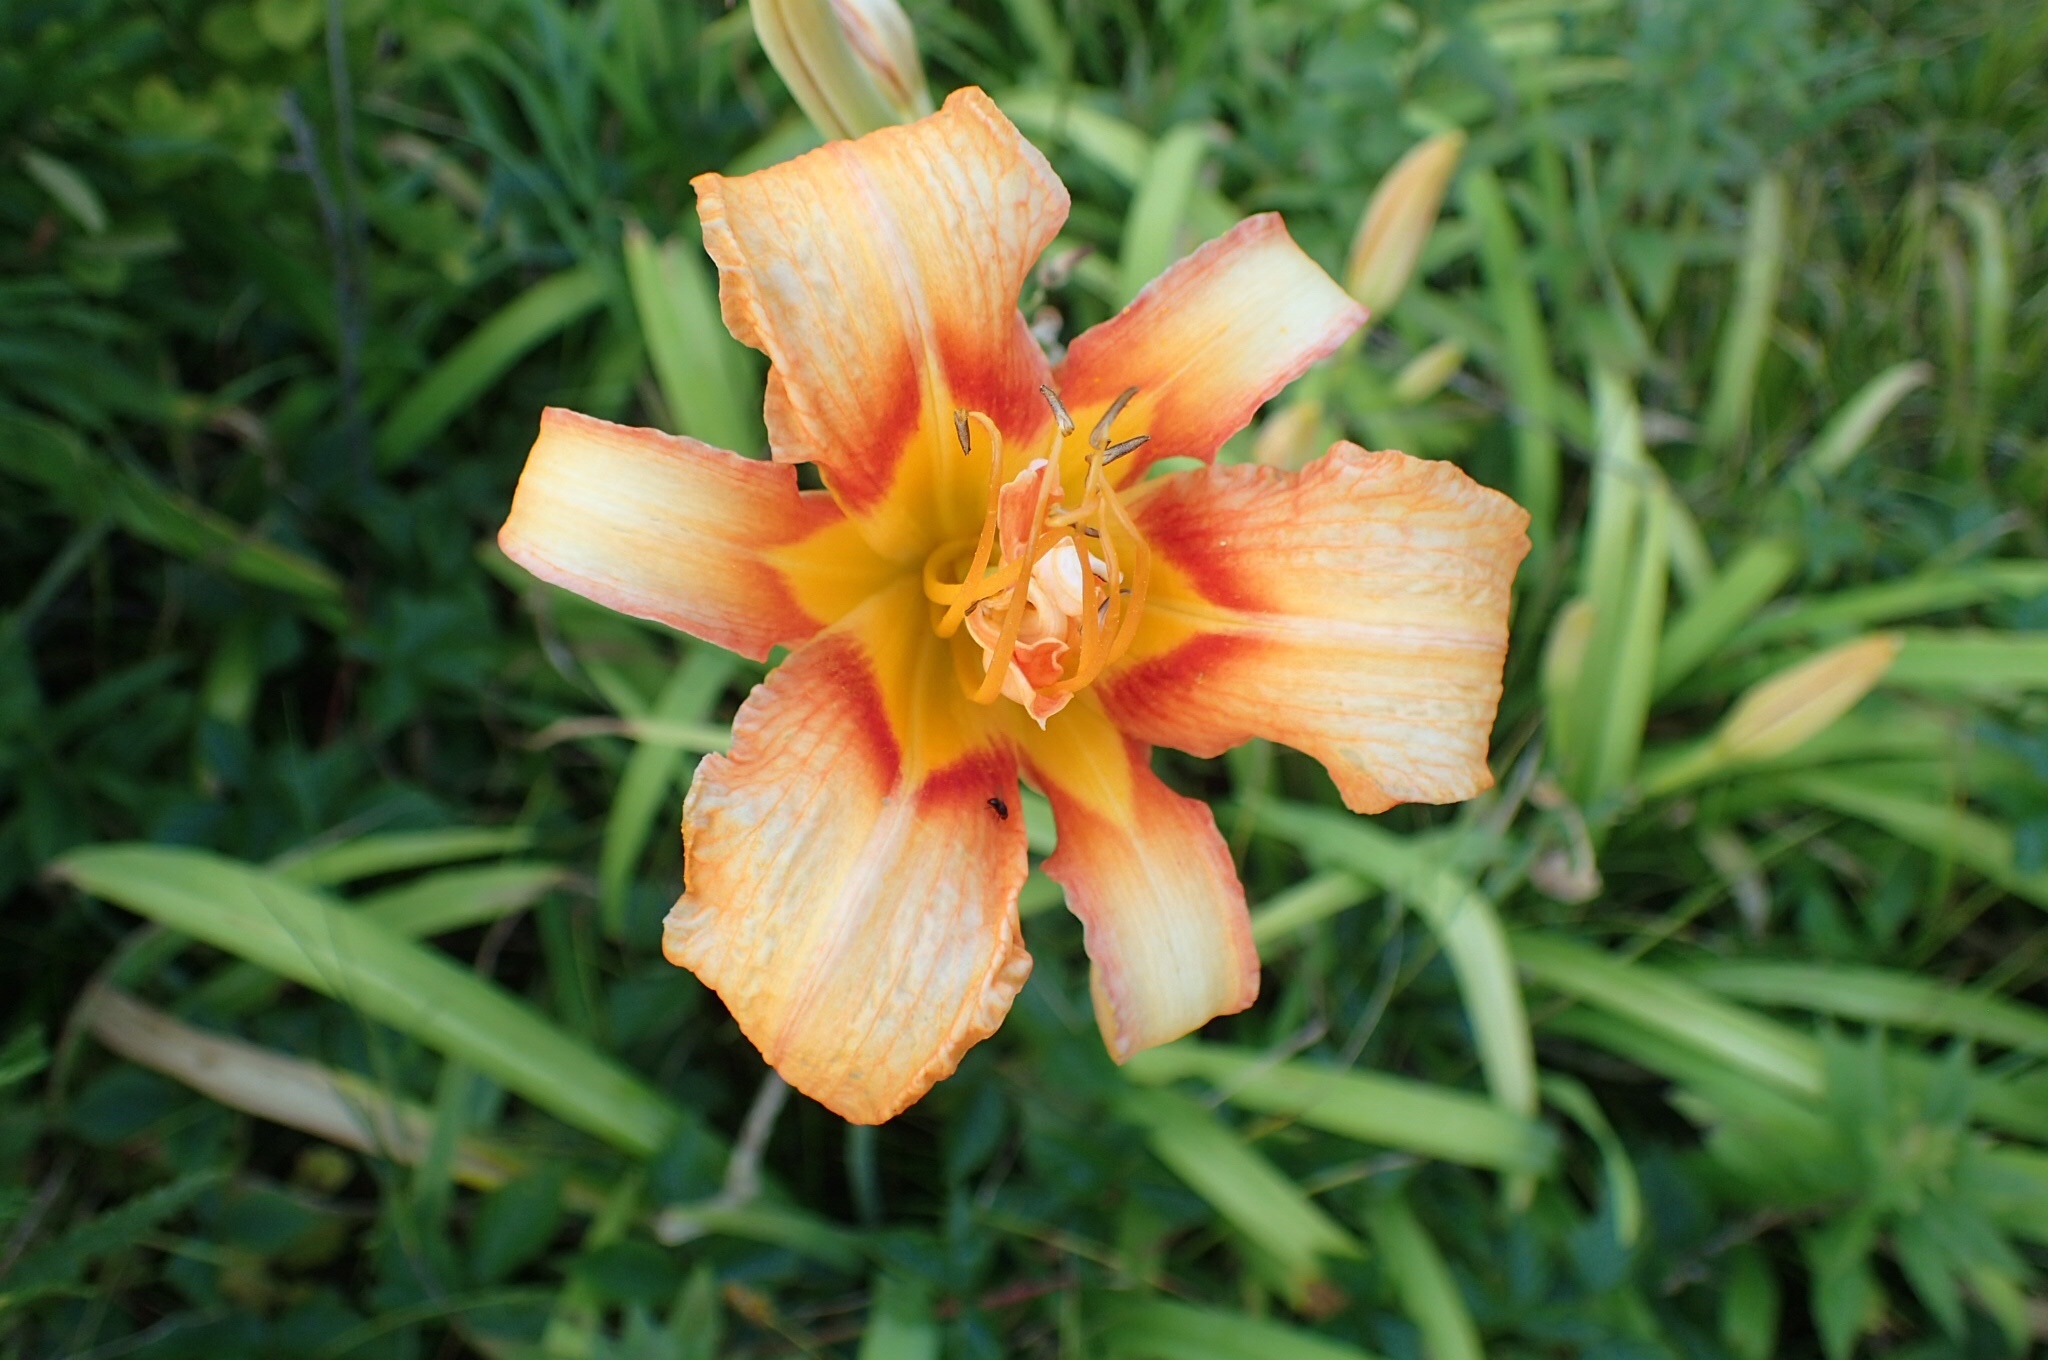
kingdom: Plantae
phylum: Tracheophyta
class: Liliopsida
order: Asparagales
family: Asphodelaceae
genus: Hemerocallis
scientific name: Hemerocallis fulva
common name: Orange day-lily
